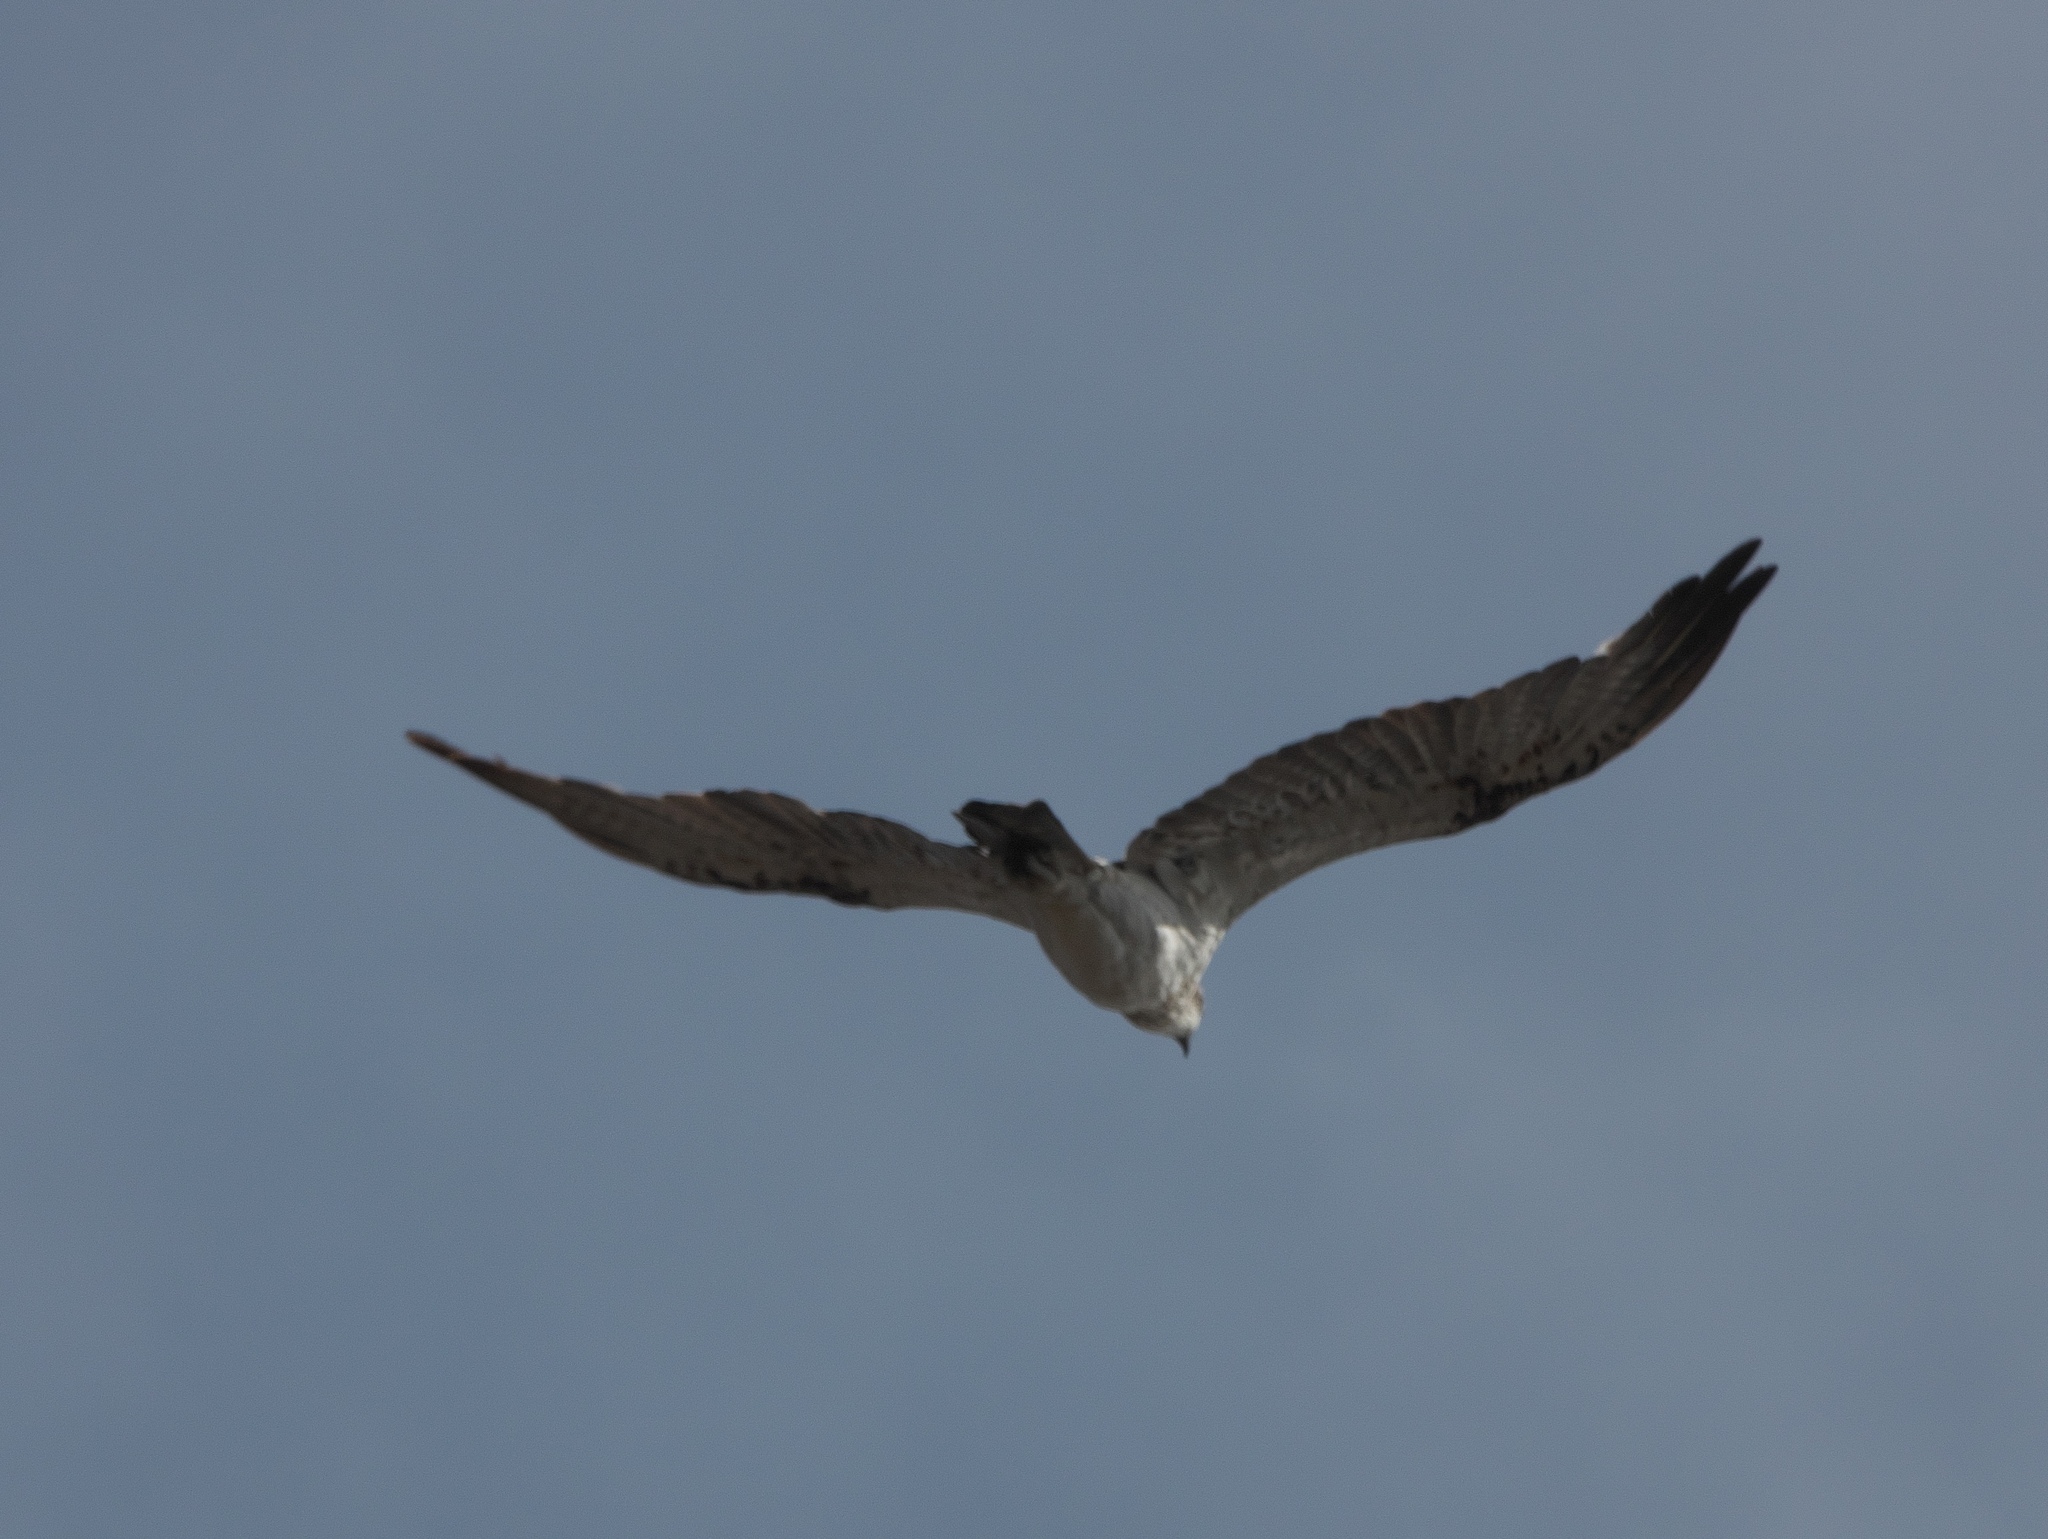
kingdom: Animalia
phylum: Chordata
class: Aves
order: Accipitriformes
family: Pandionidae
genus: Pandion
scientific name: Pandion cristatus
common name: Eastern osprey
